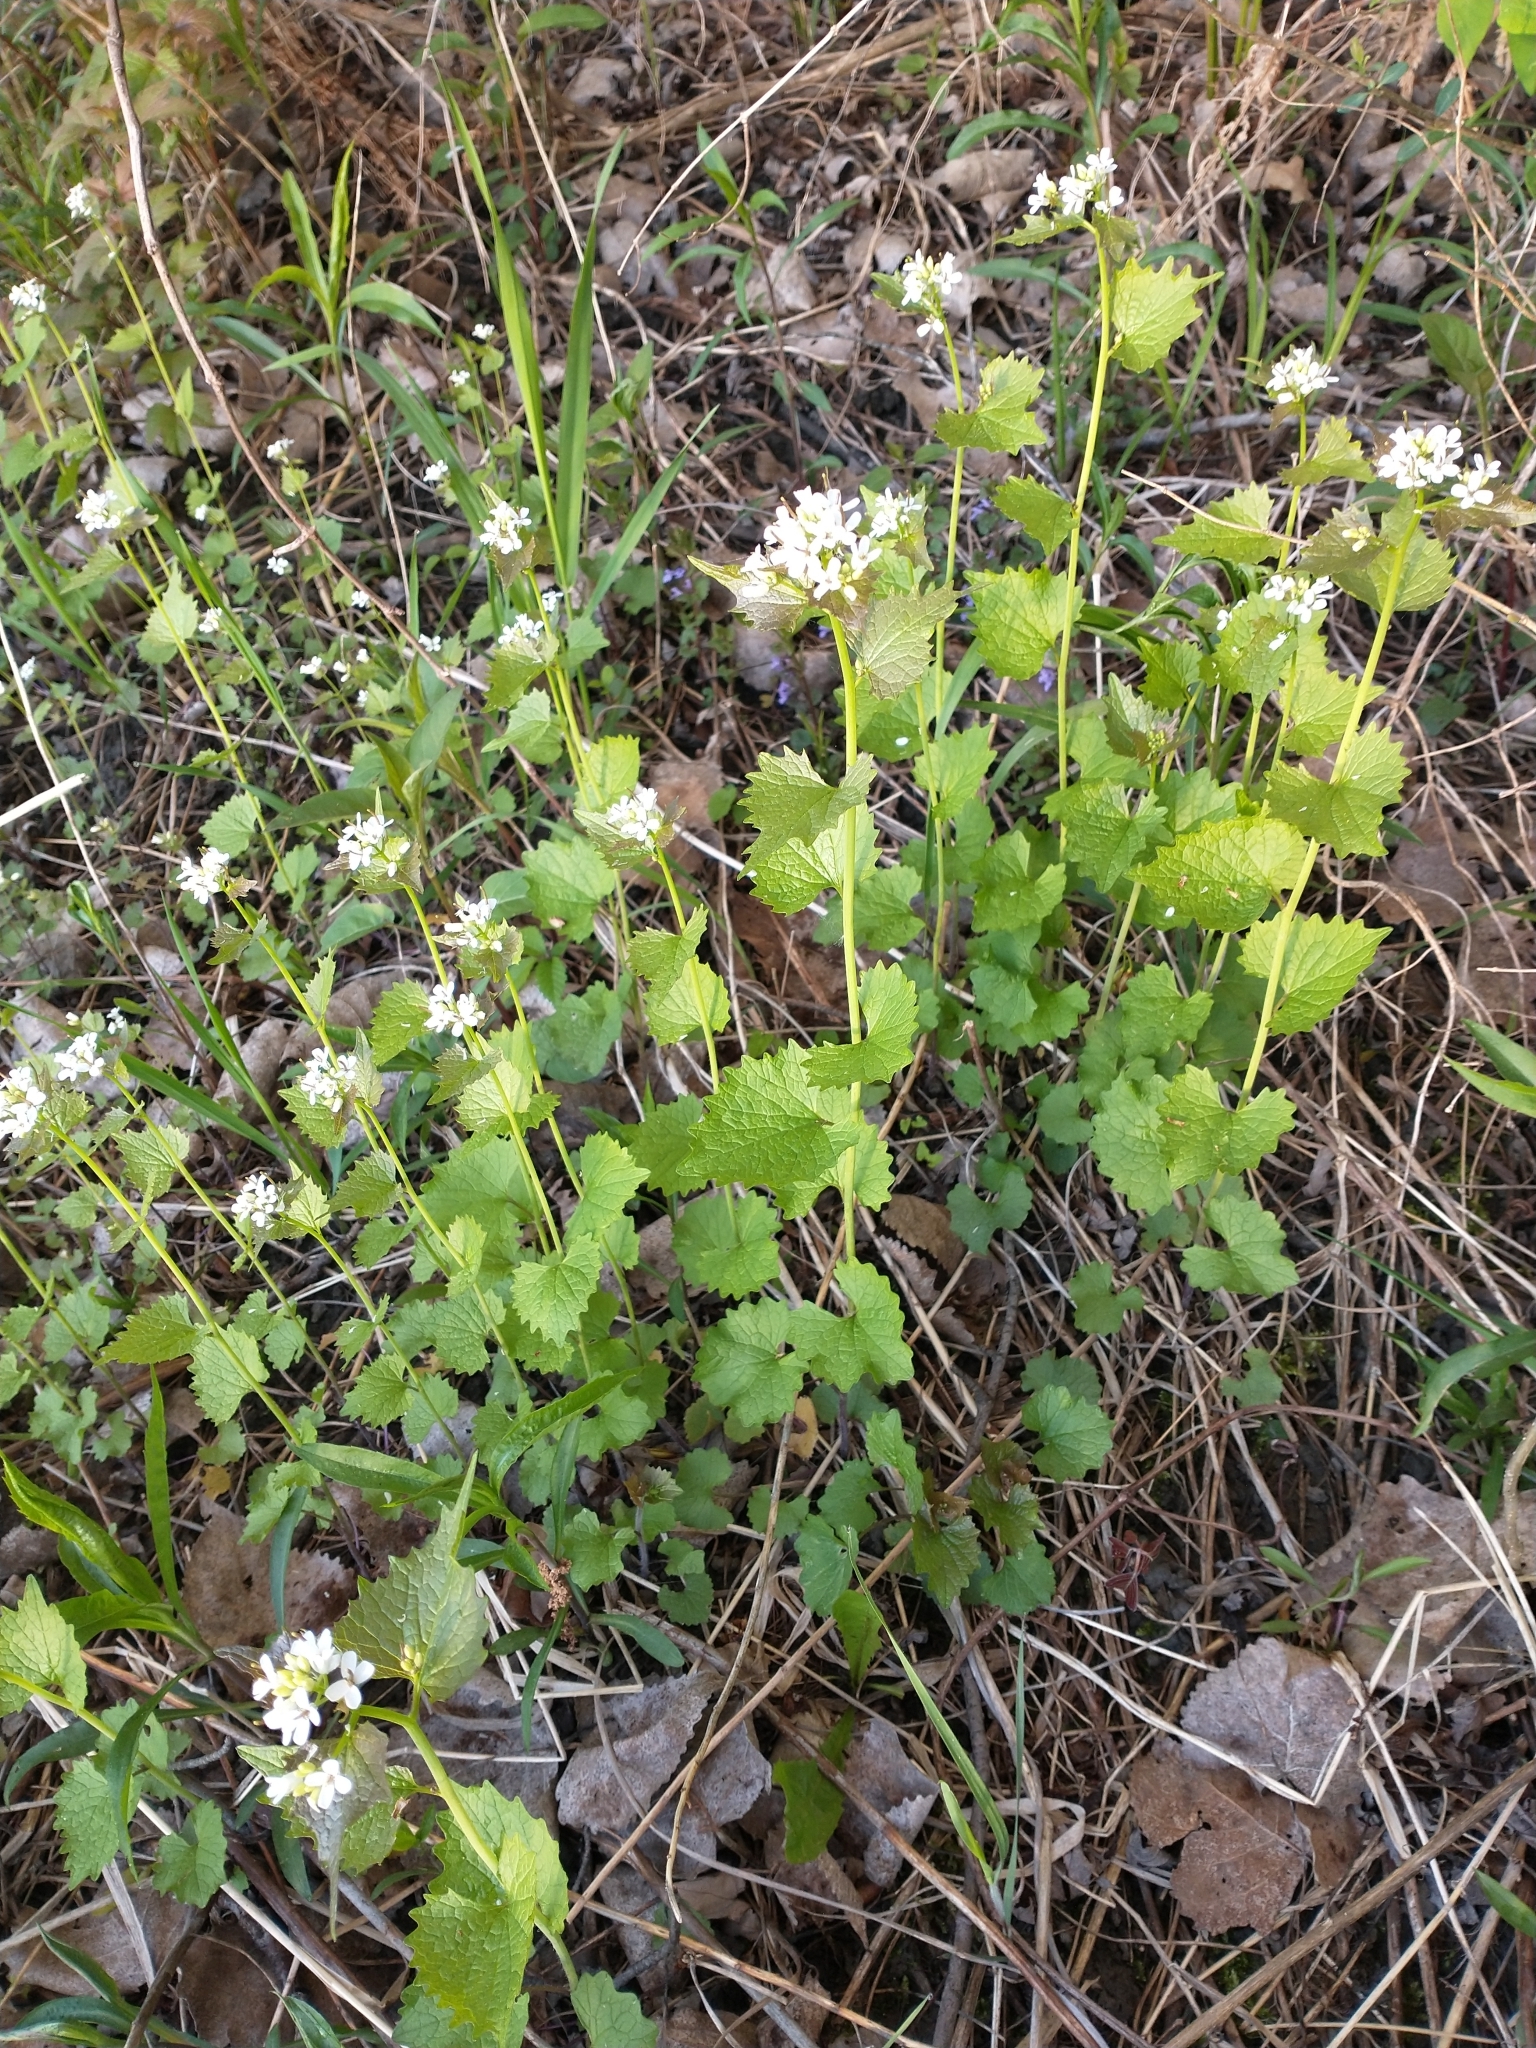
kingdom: Plantae
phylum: Tracheophyta
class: Magnoliopsida
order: Brassicales
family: Brassicaceae
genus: Alliaria
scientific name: Alliaria petiolata
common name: Garlic mustard
